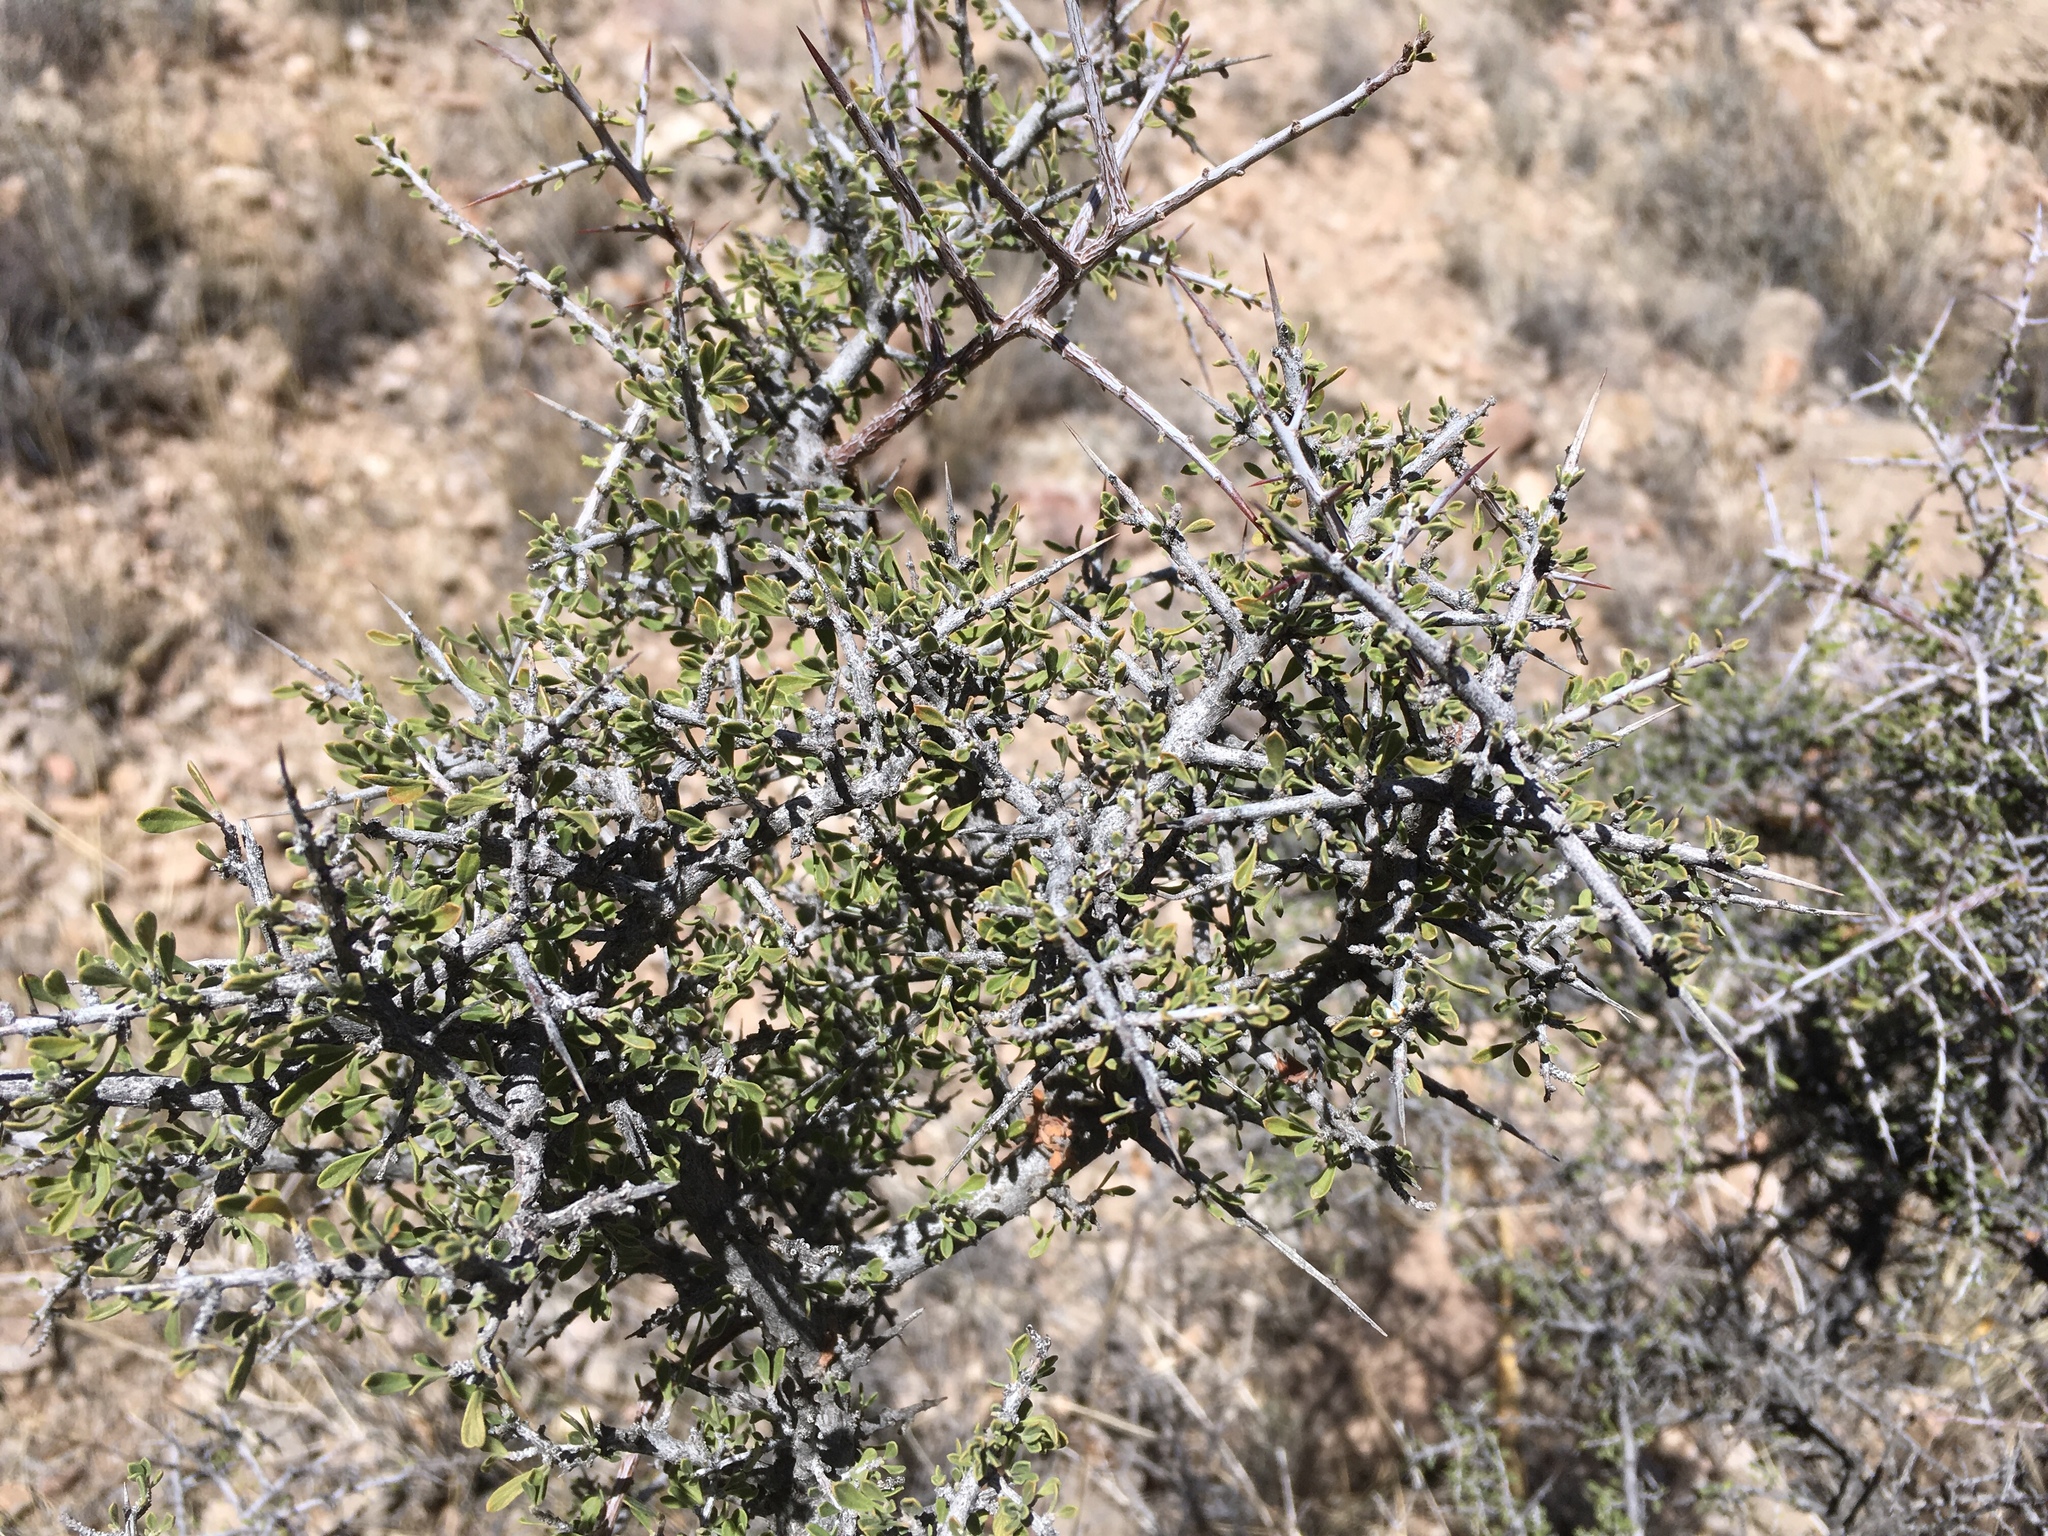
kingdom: Plantae
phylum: Tracheophyta
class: Magnoliopsida
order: Rosales
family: Rhamnaceae
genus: Condalia
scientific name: Condalia warnockii
